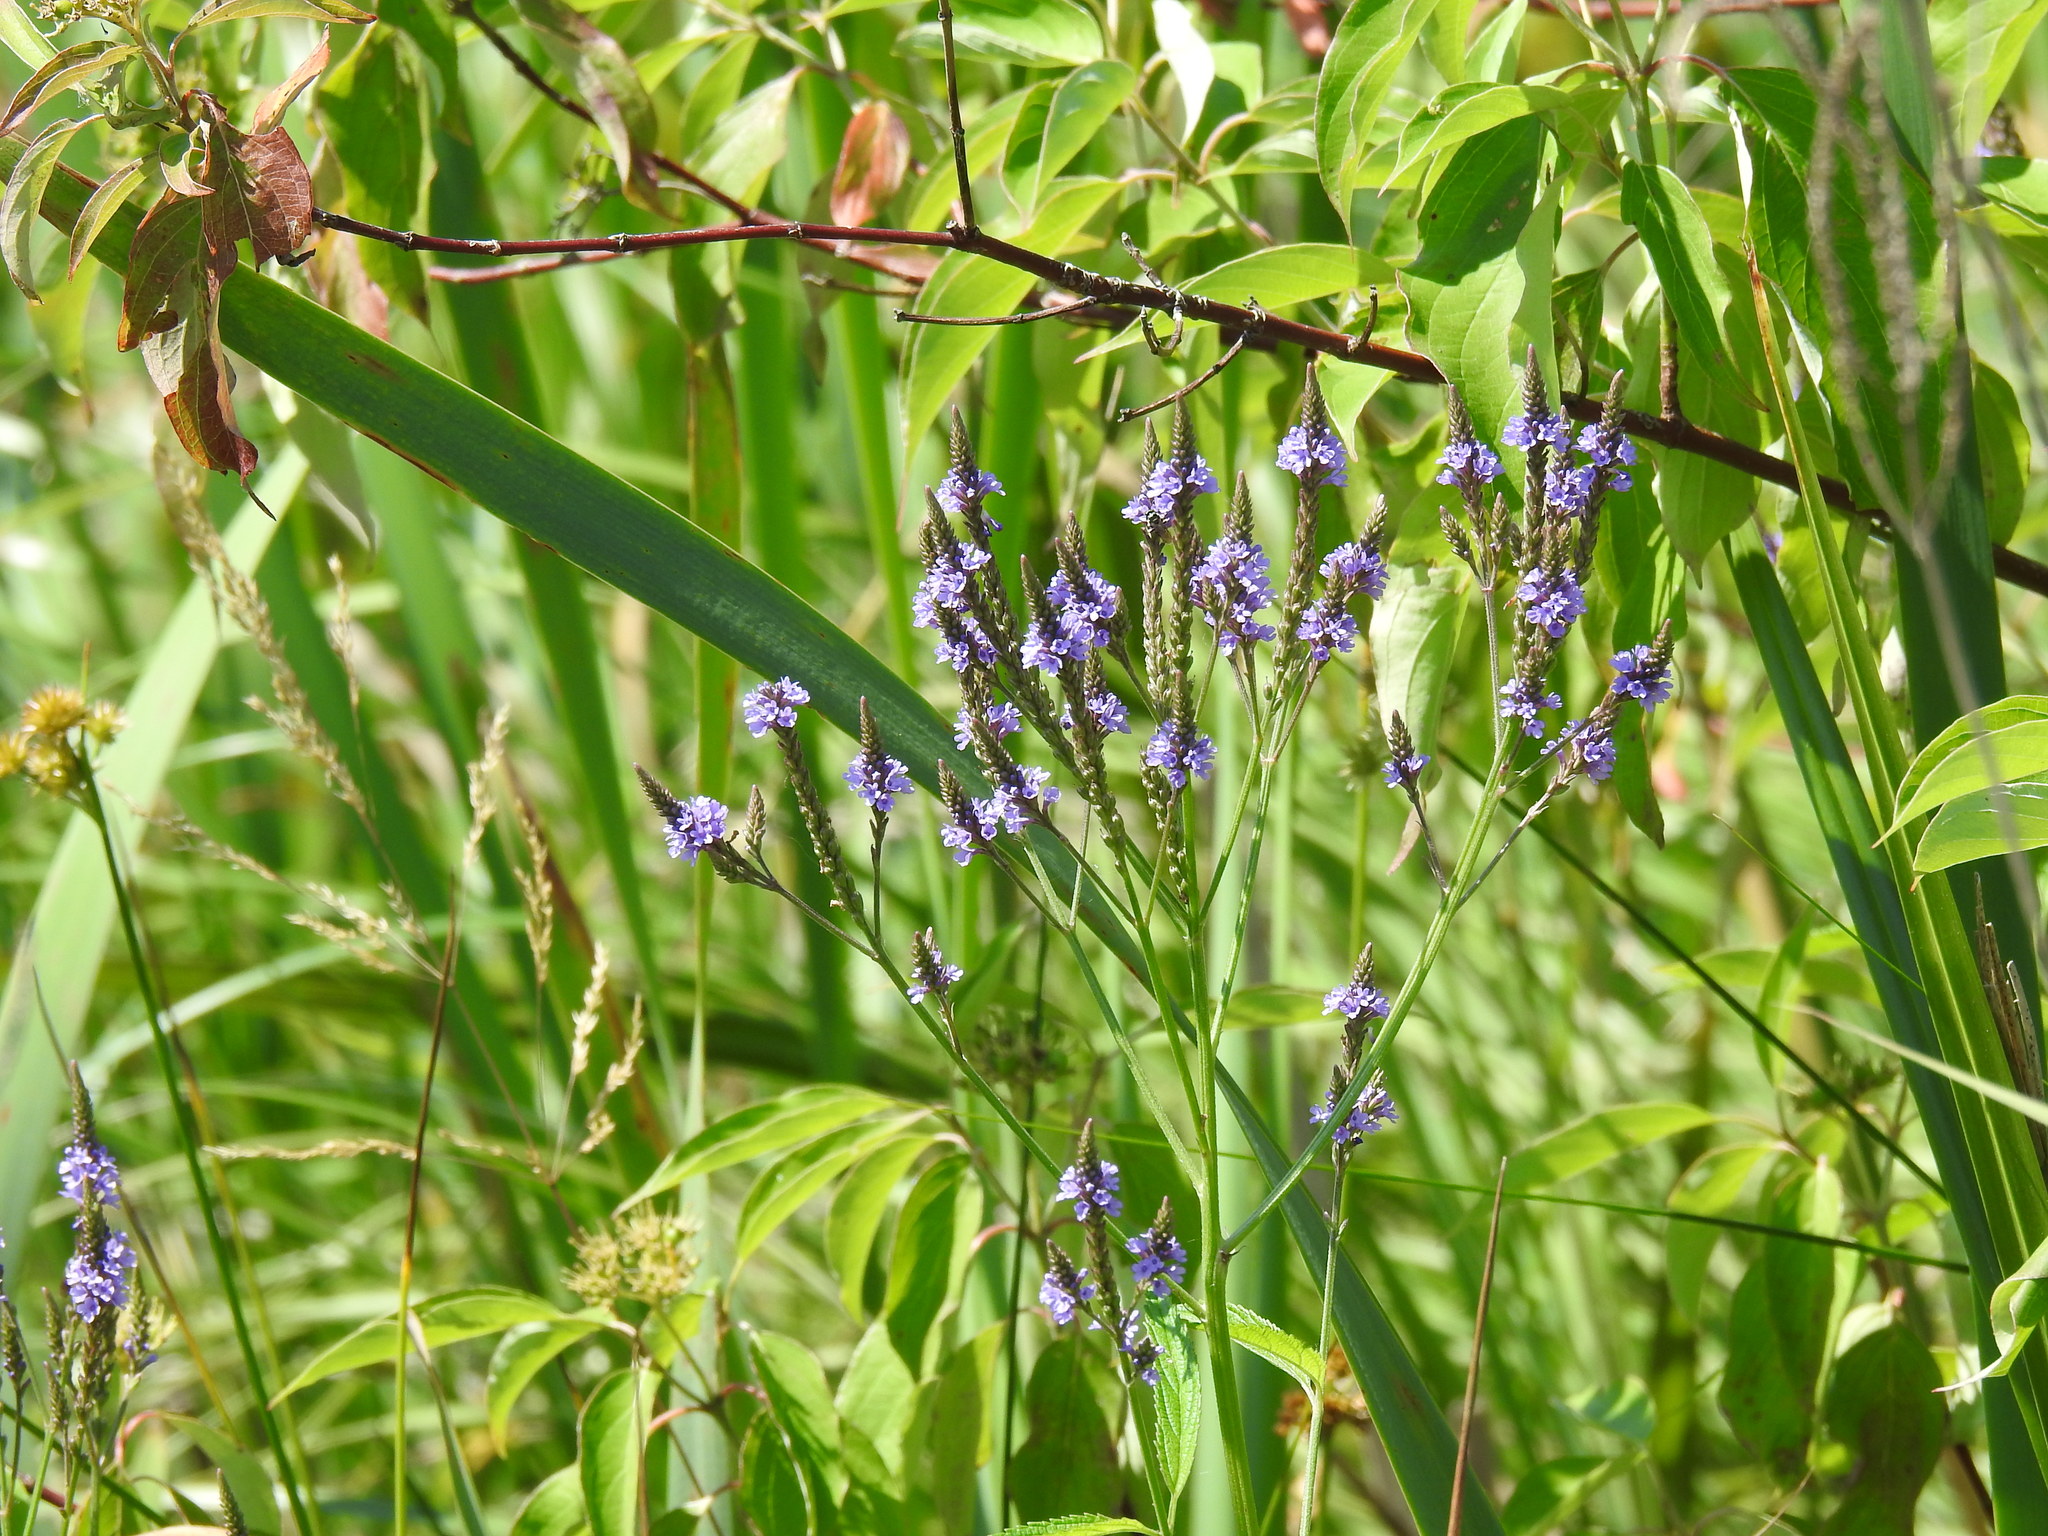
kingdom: Plantae
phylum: Tracheophyta
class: Magnoliopsida
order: Lamiales
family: Verbenaceae
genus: Verbena
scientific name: Verbena hastata
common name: American blue vervain
